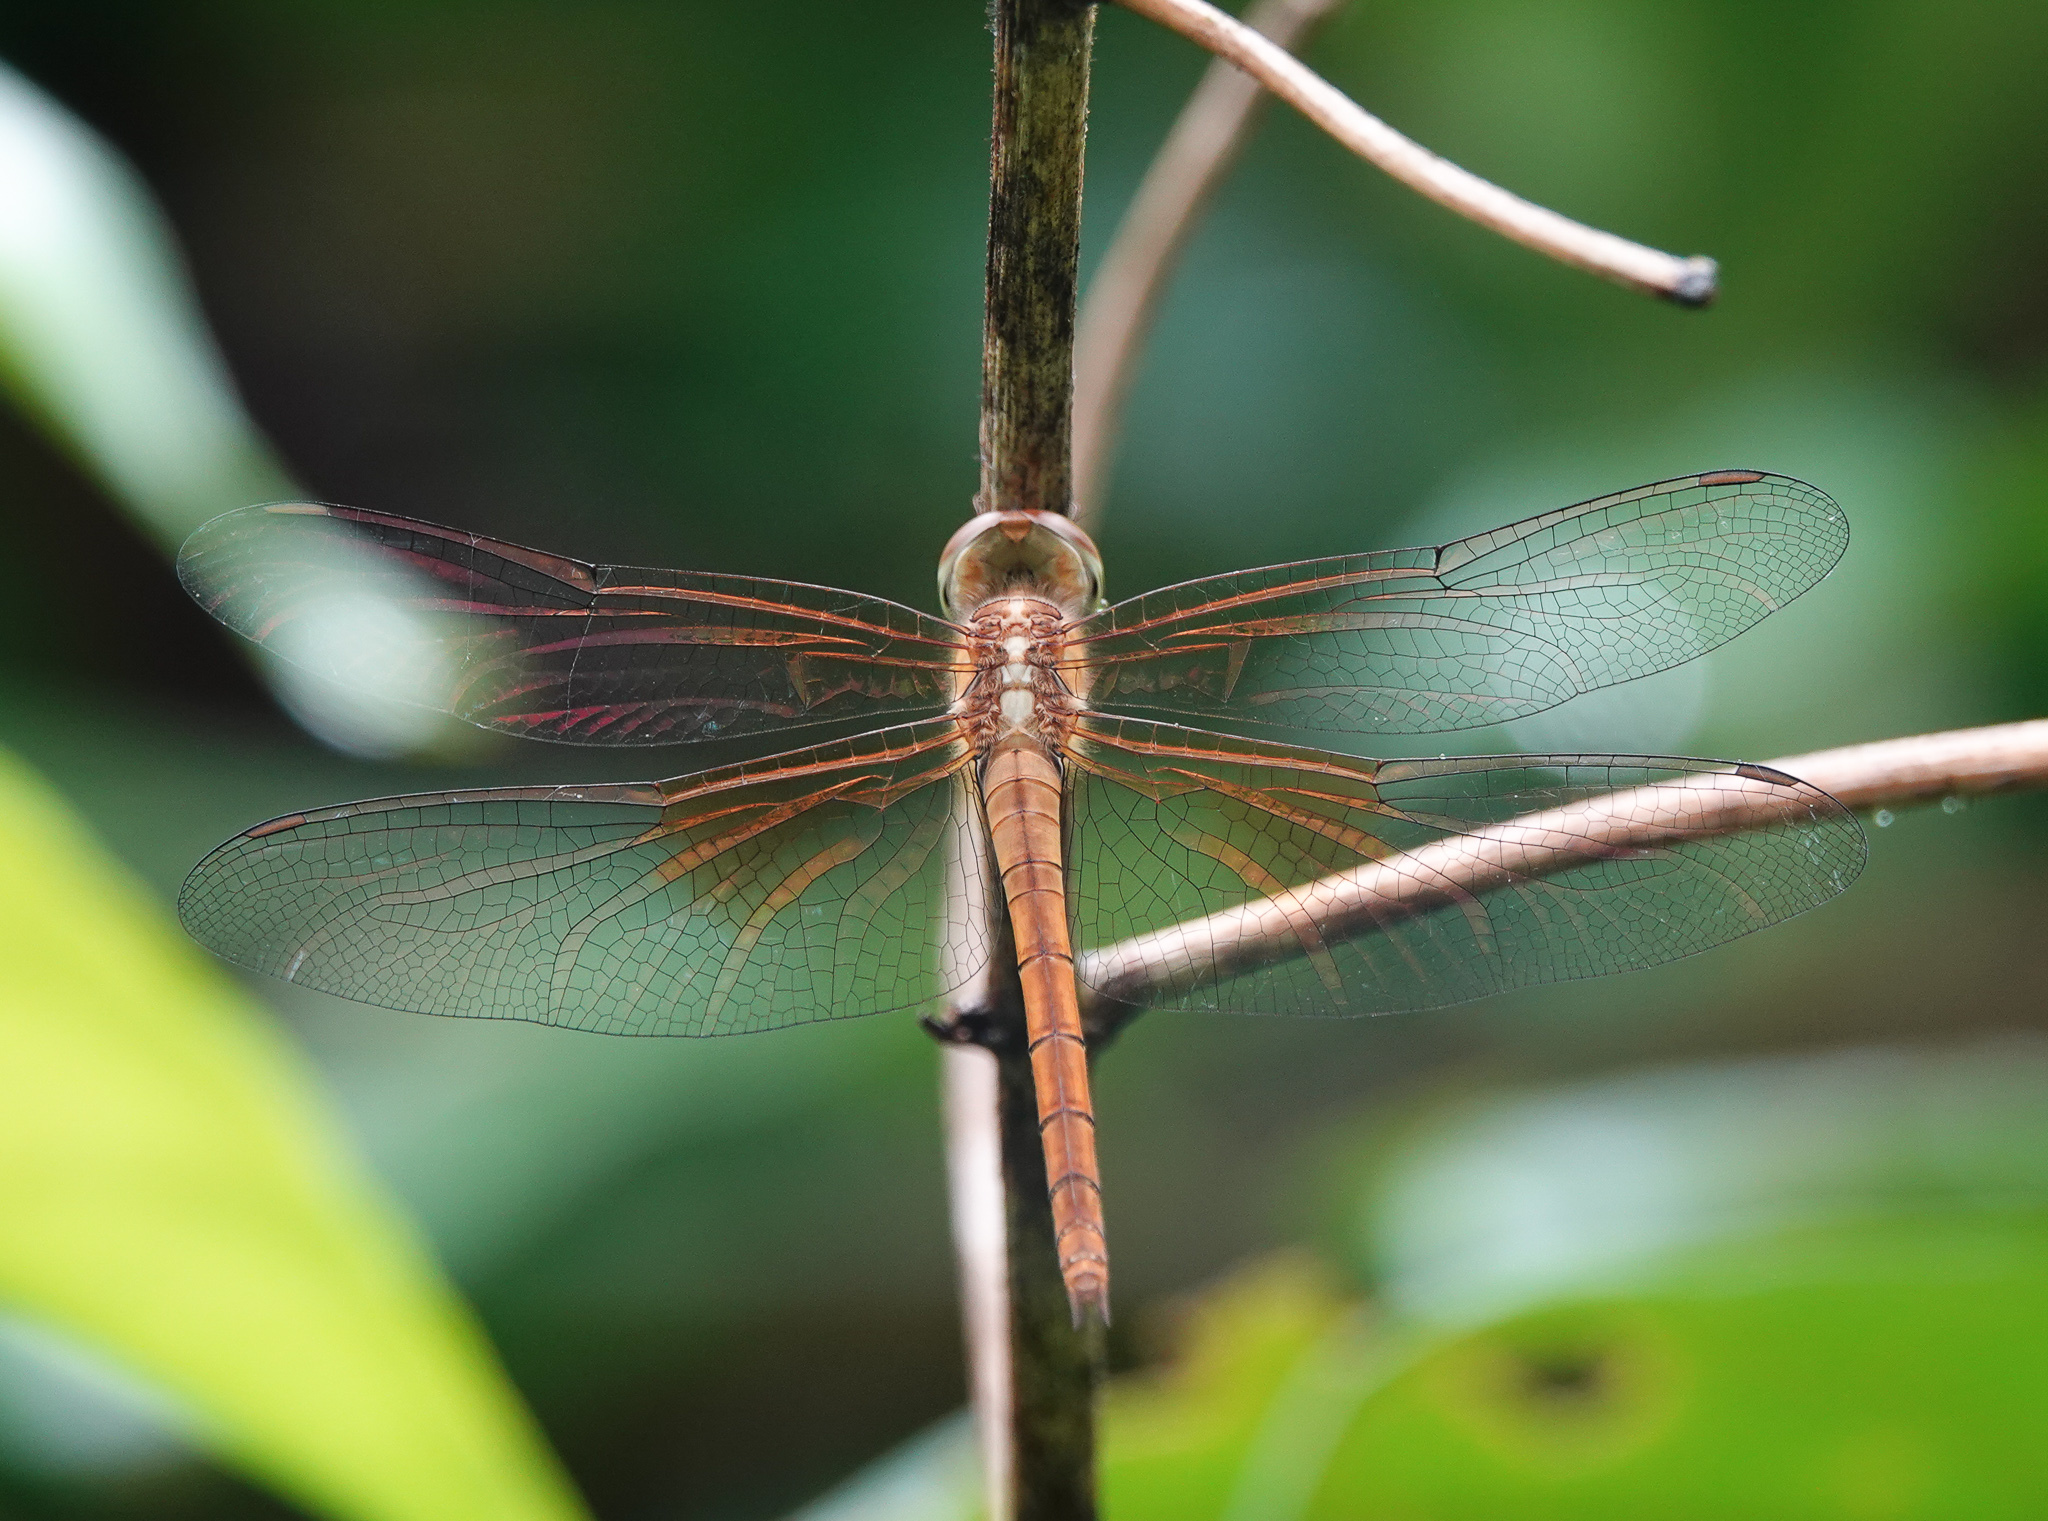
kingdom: Animalia
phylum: Arthropoda
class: Insecta
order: Odonata
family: Libellulidae
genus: Tholymis
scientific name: Tholymis tillarga
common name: Coral-tailed cloud wing
